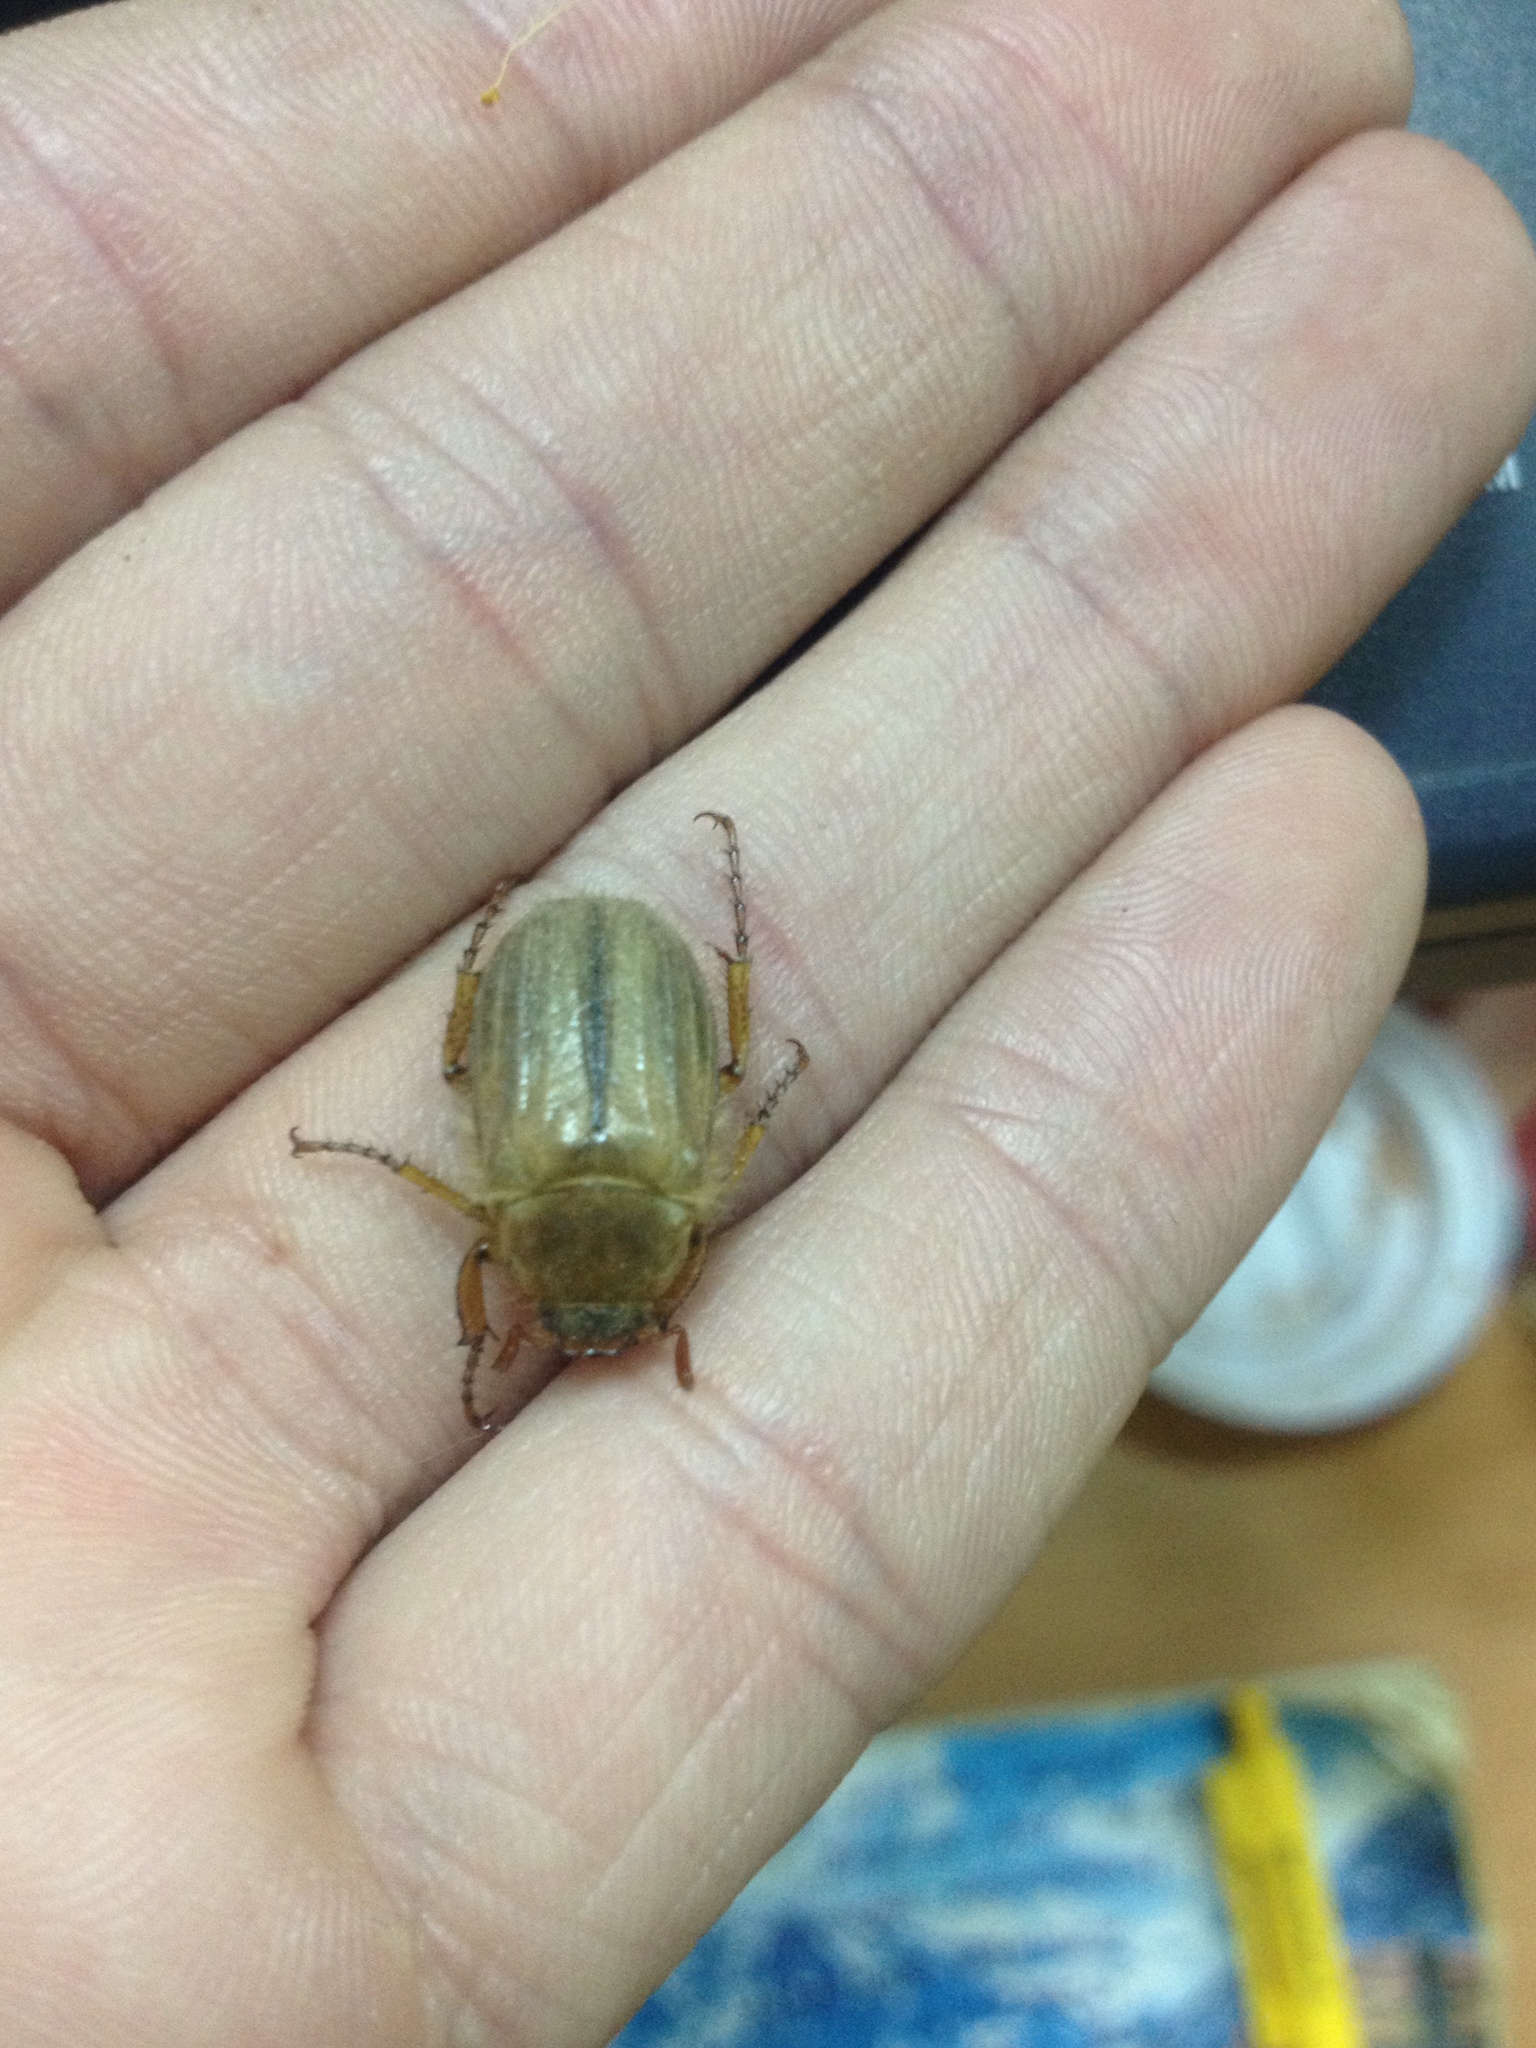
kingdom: Animalia
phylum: Arthropoda
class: Insecta
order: Coleoptera
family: Scarabaeidae
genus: Amphimallon
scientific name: Amphimallon solstitiale
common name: Summer chafer
